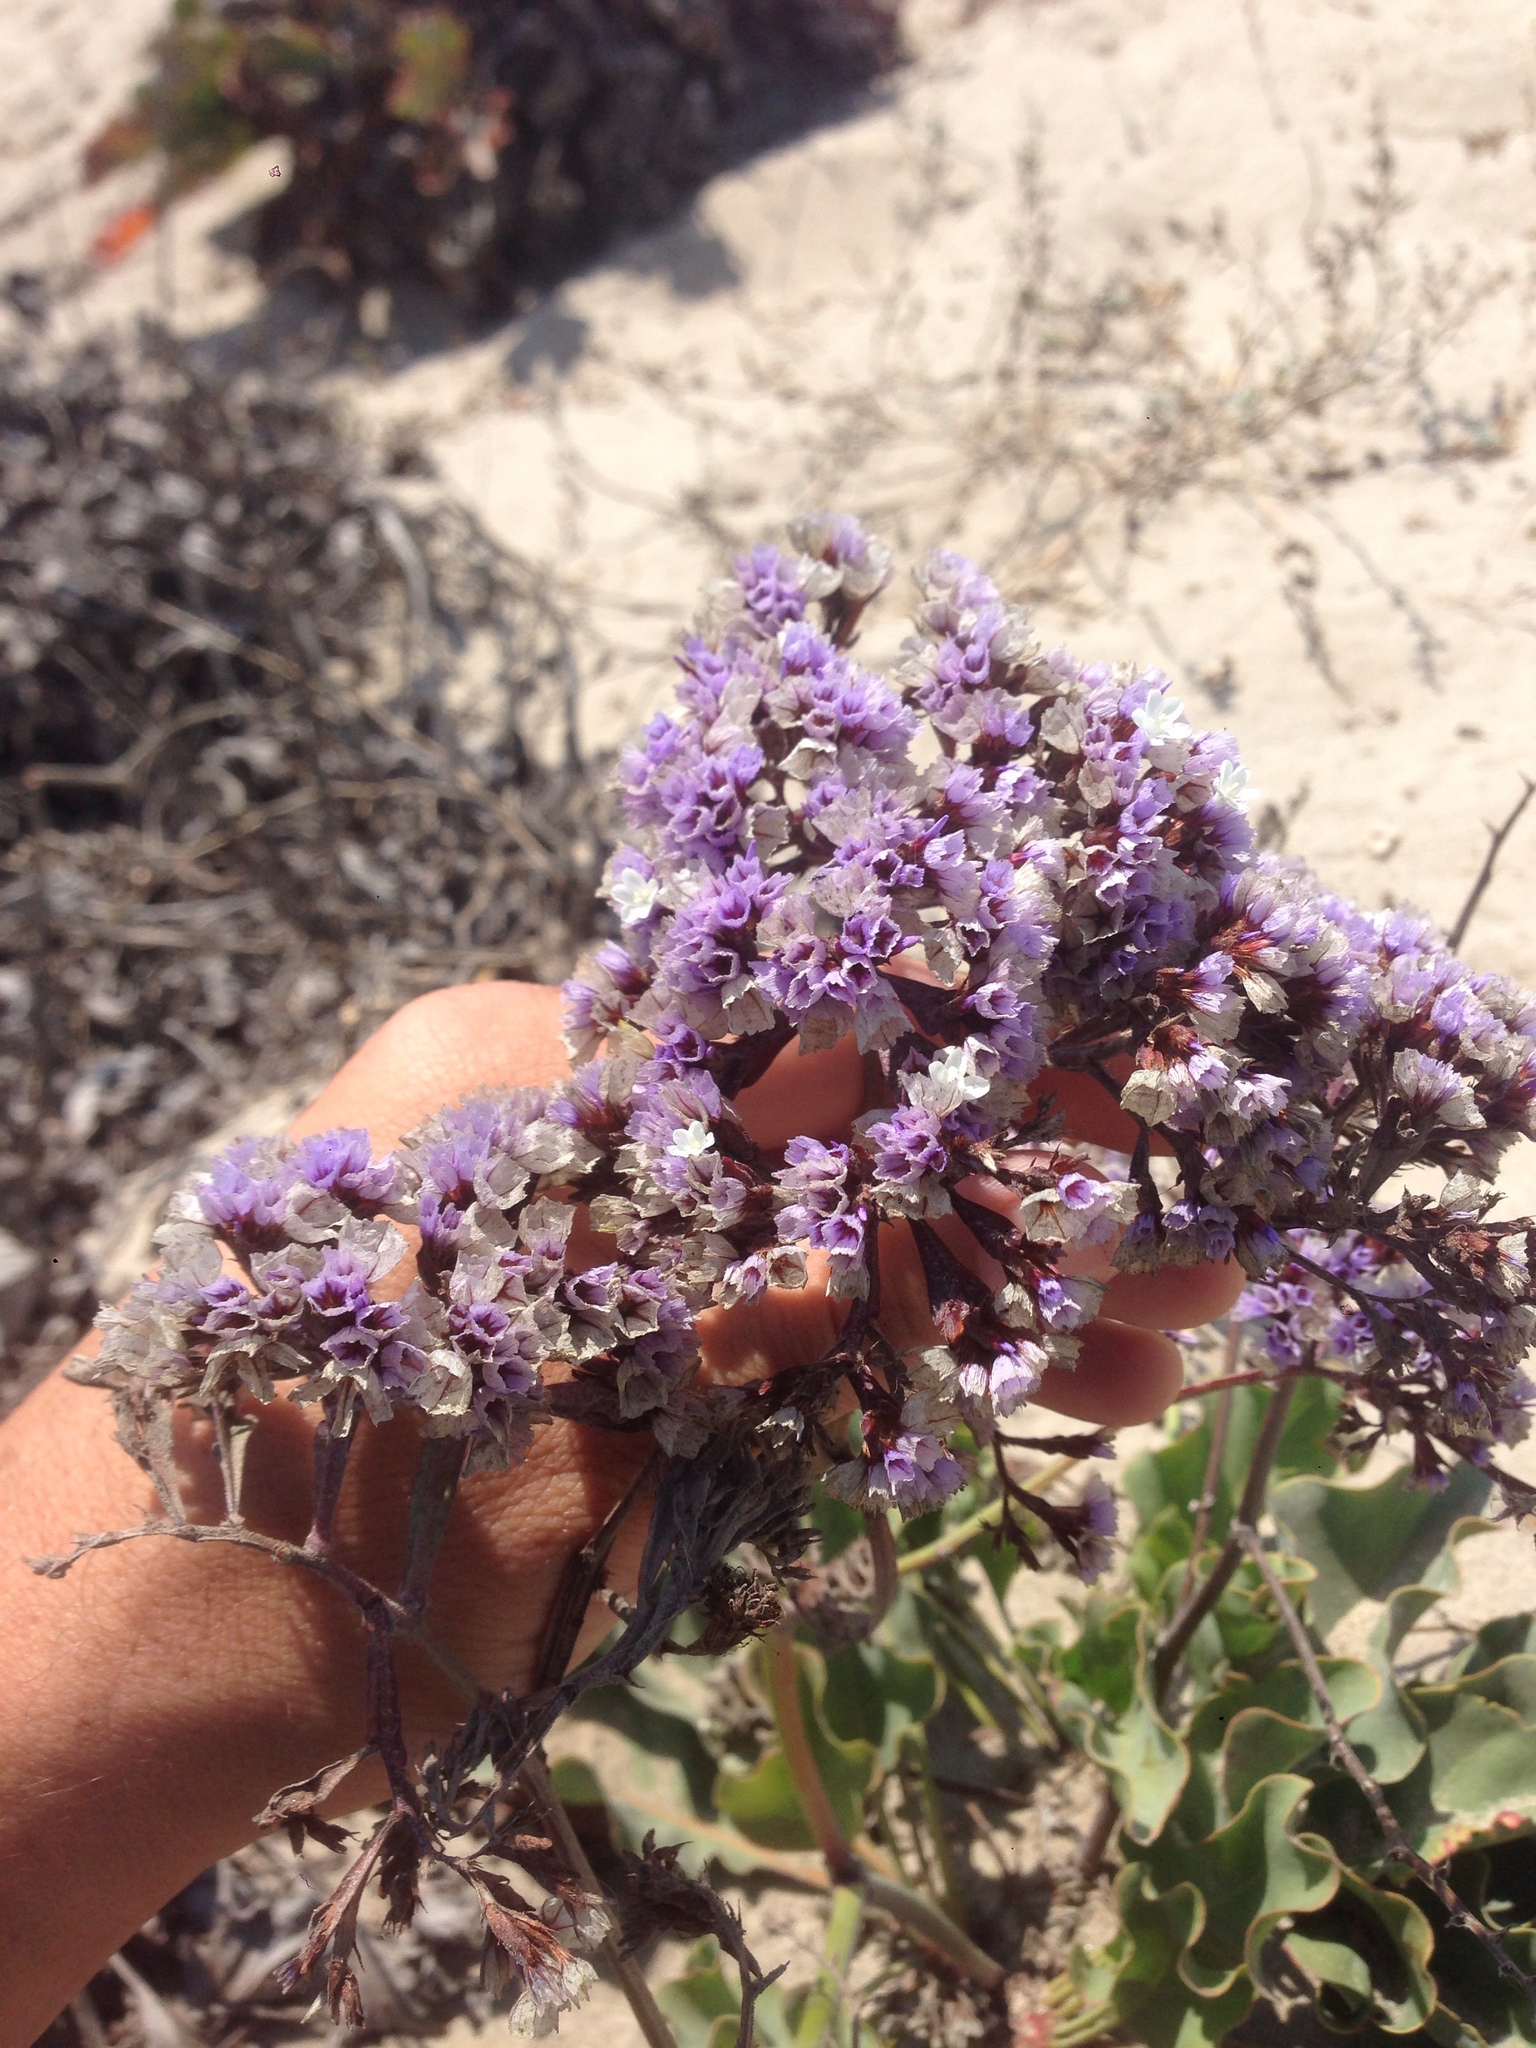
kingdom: Plantae
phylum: Tracheophyta
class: Magnoliopsida
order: Caryophyllales
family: Plumbaginaceae
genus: Limonium
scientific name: Limonium perezii
